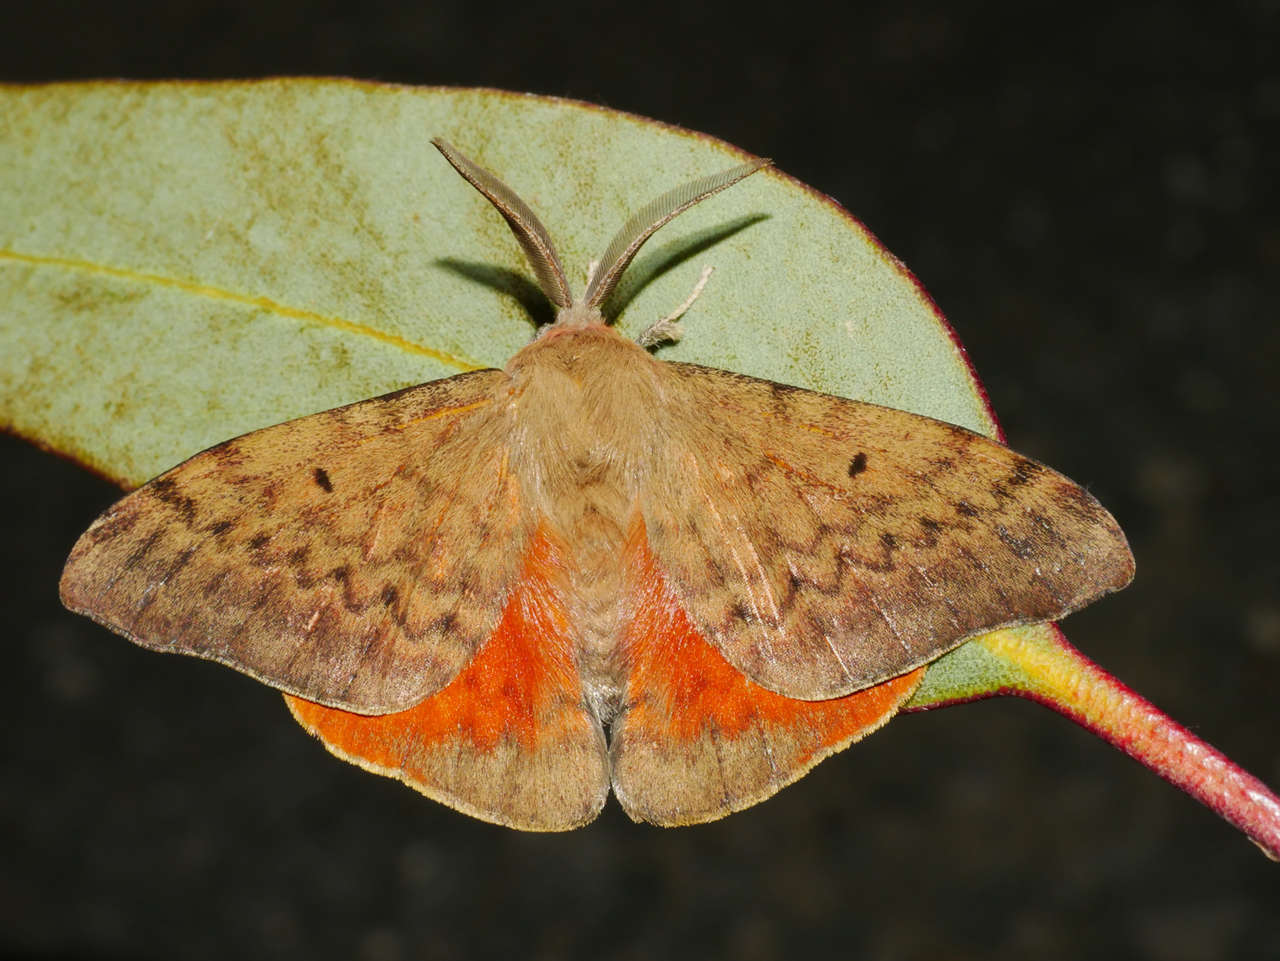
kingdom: Animalia
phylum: Arthropoda
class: Insecta
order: Lepidoptera
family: Anthelidae
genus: Chenuala
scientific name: Chenuala heliaspis
